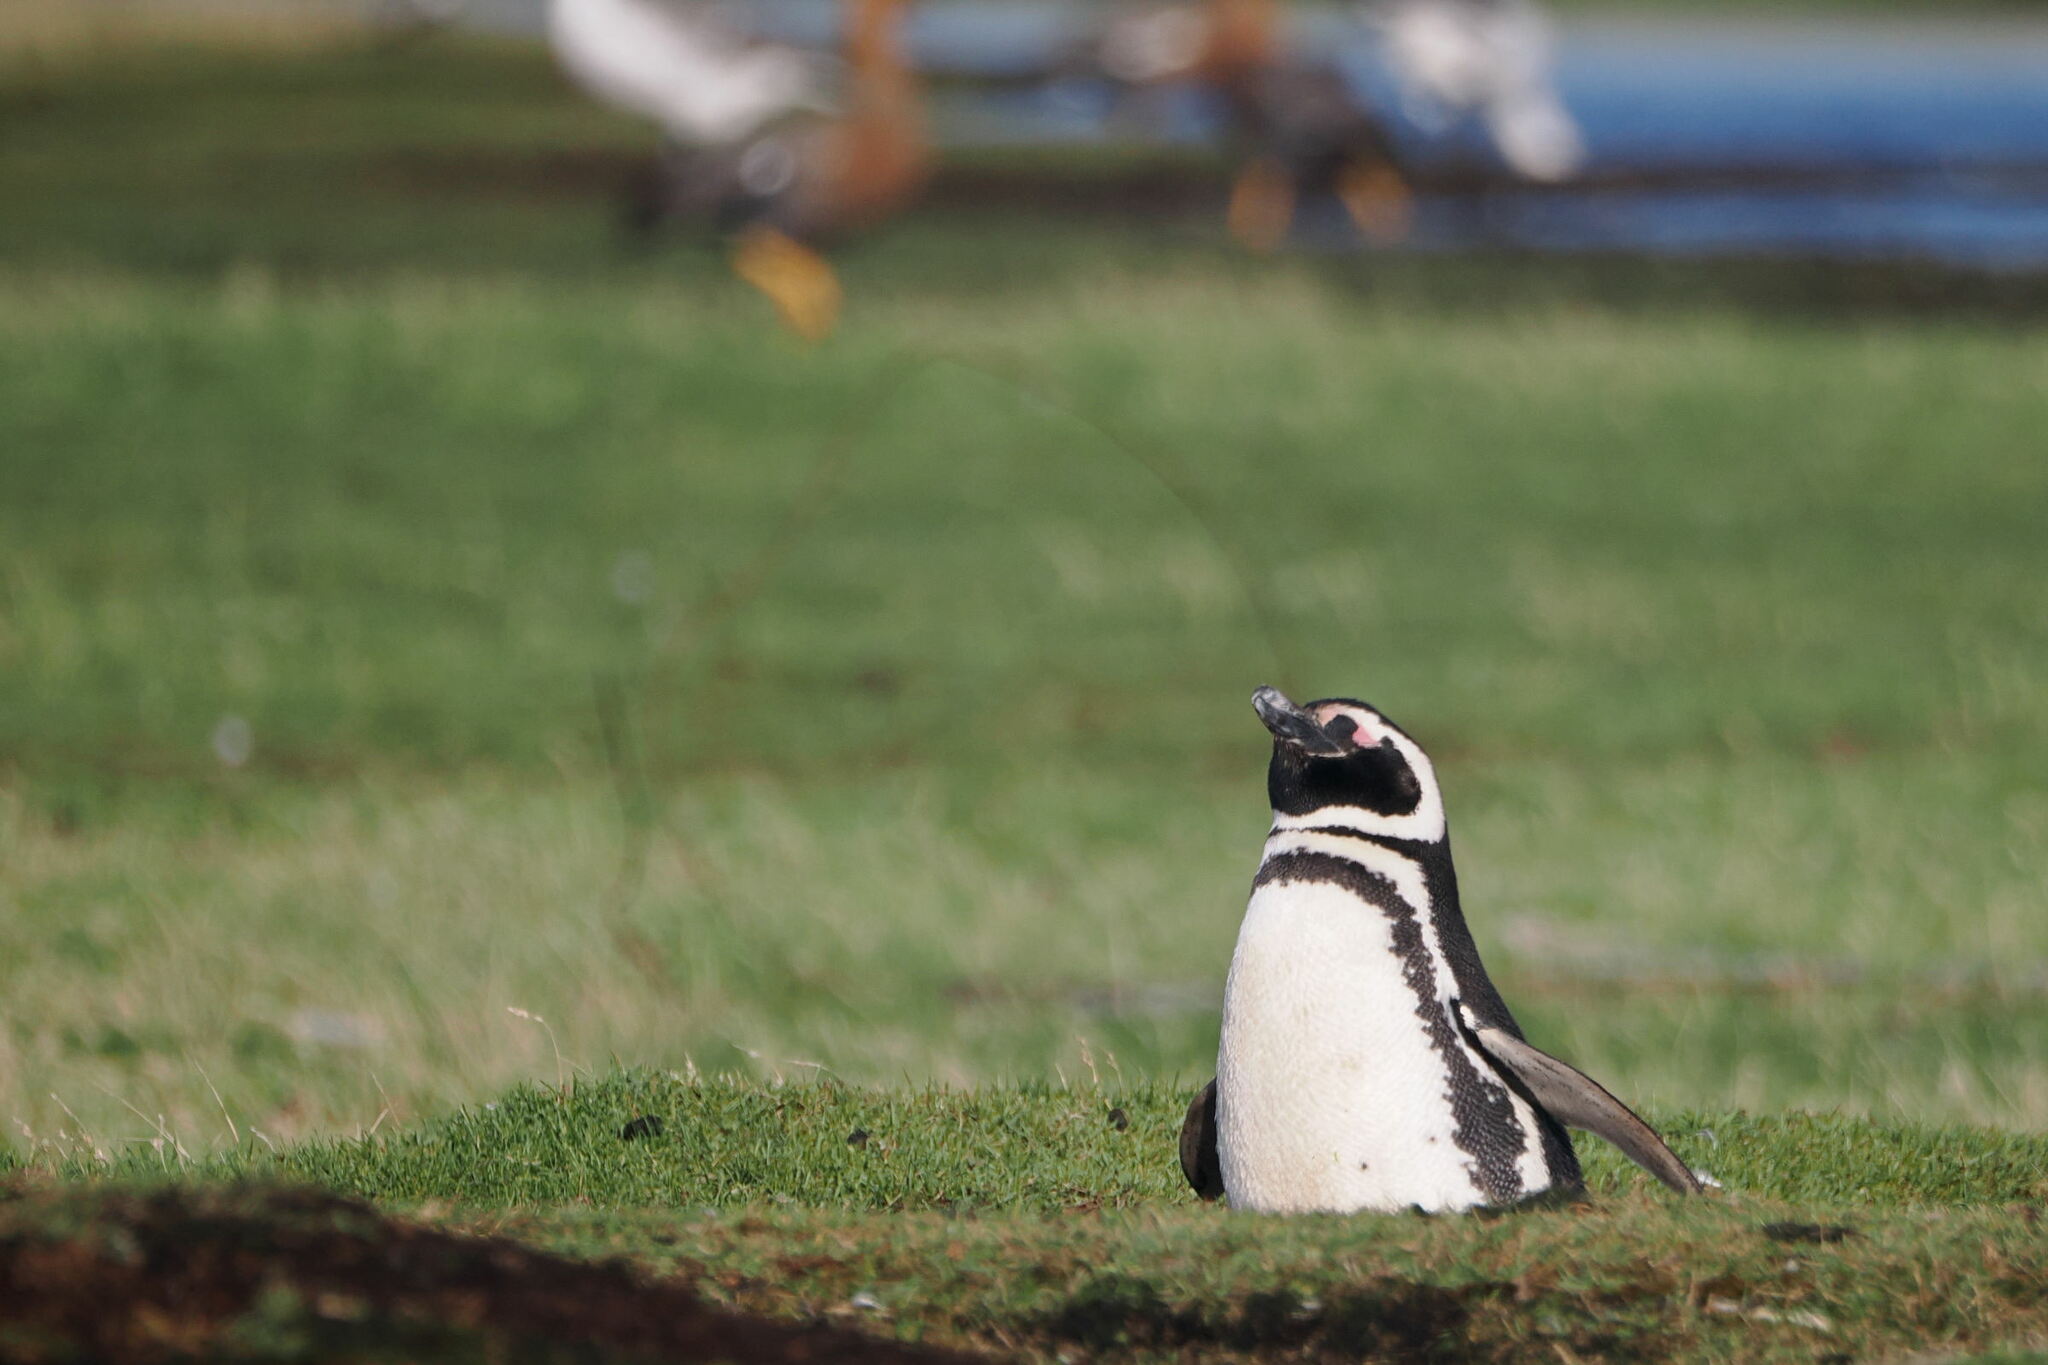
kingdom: Animalia
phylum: Chordata
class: Aves
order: Sphenisciformes
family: Spheniscidae
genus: Spheniscus
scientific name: Spheniscus magellanicus
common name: Magellanic penguin
